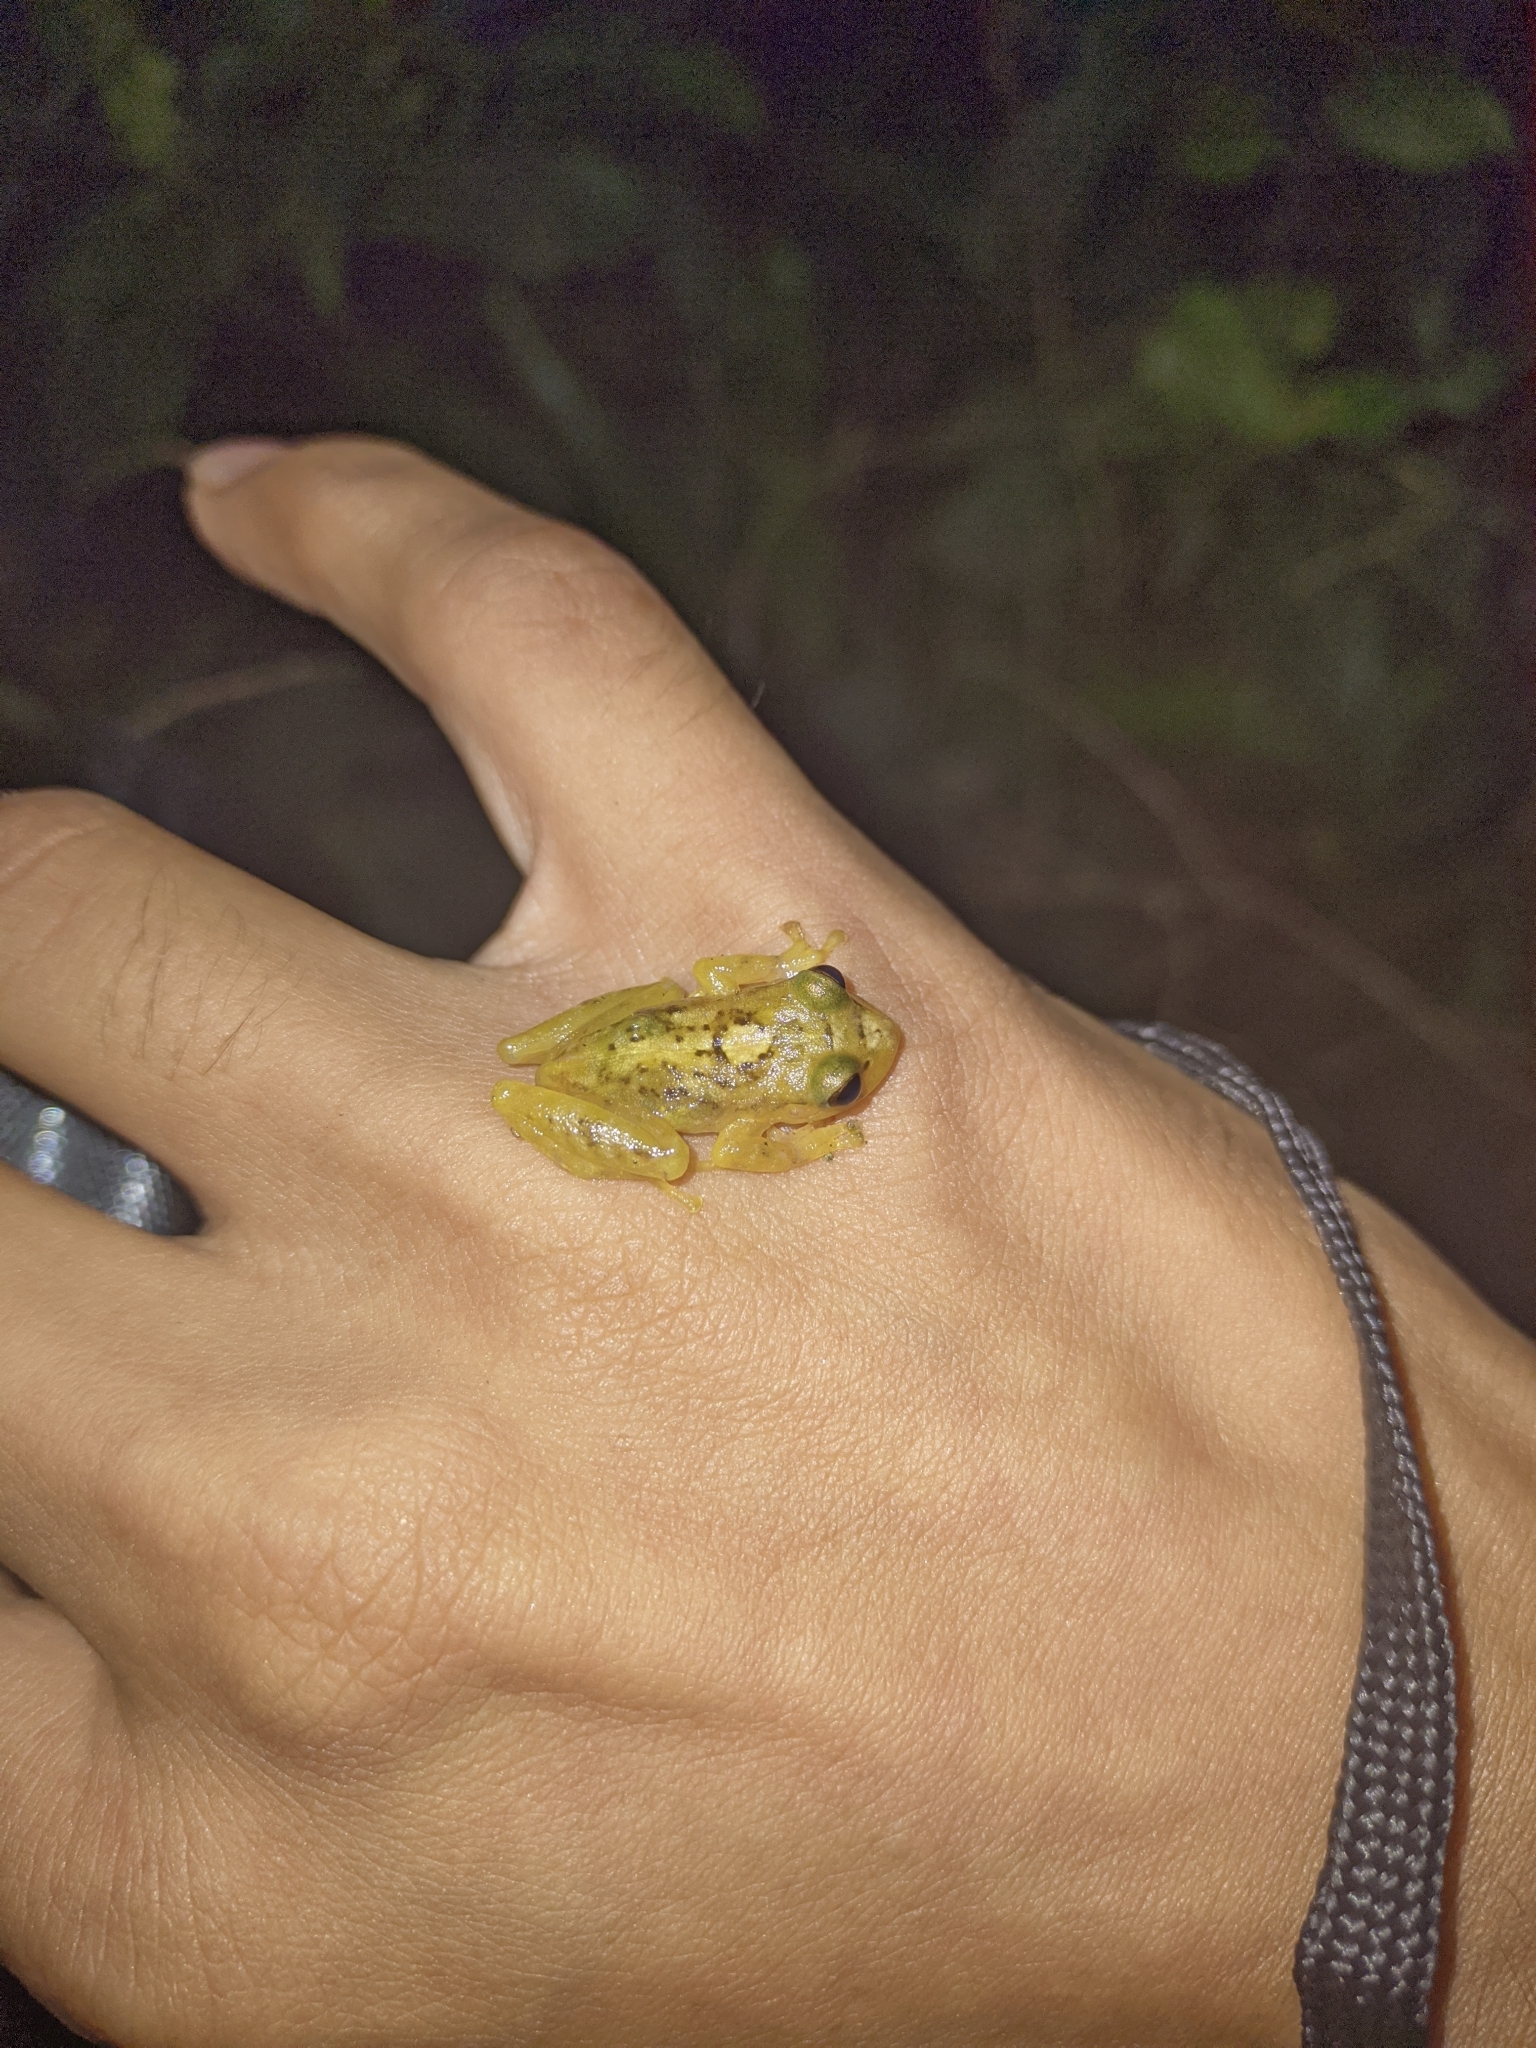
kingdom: Animalia
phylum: Chordata
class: Amphibia
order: Anura
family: Craugastoridae
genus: Tachiramantis
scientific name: Tachiramantis
